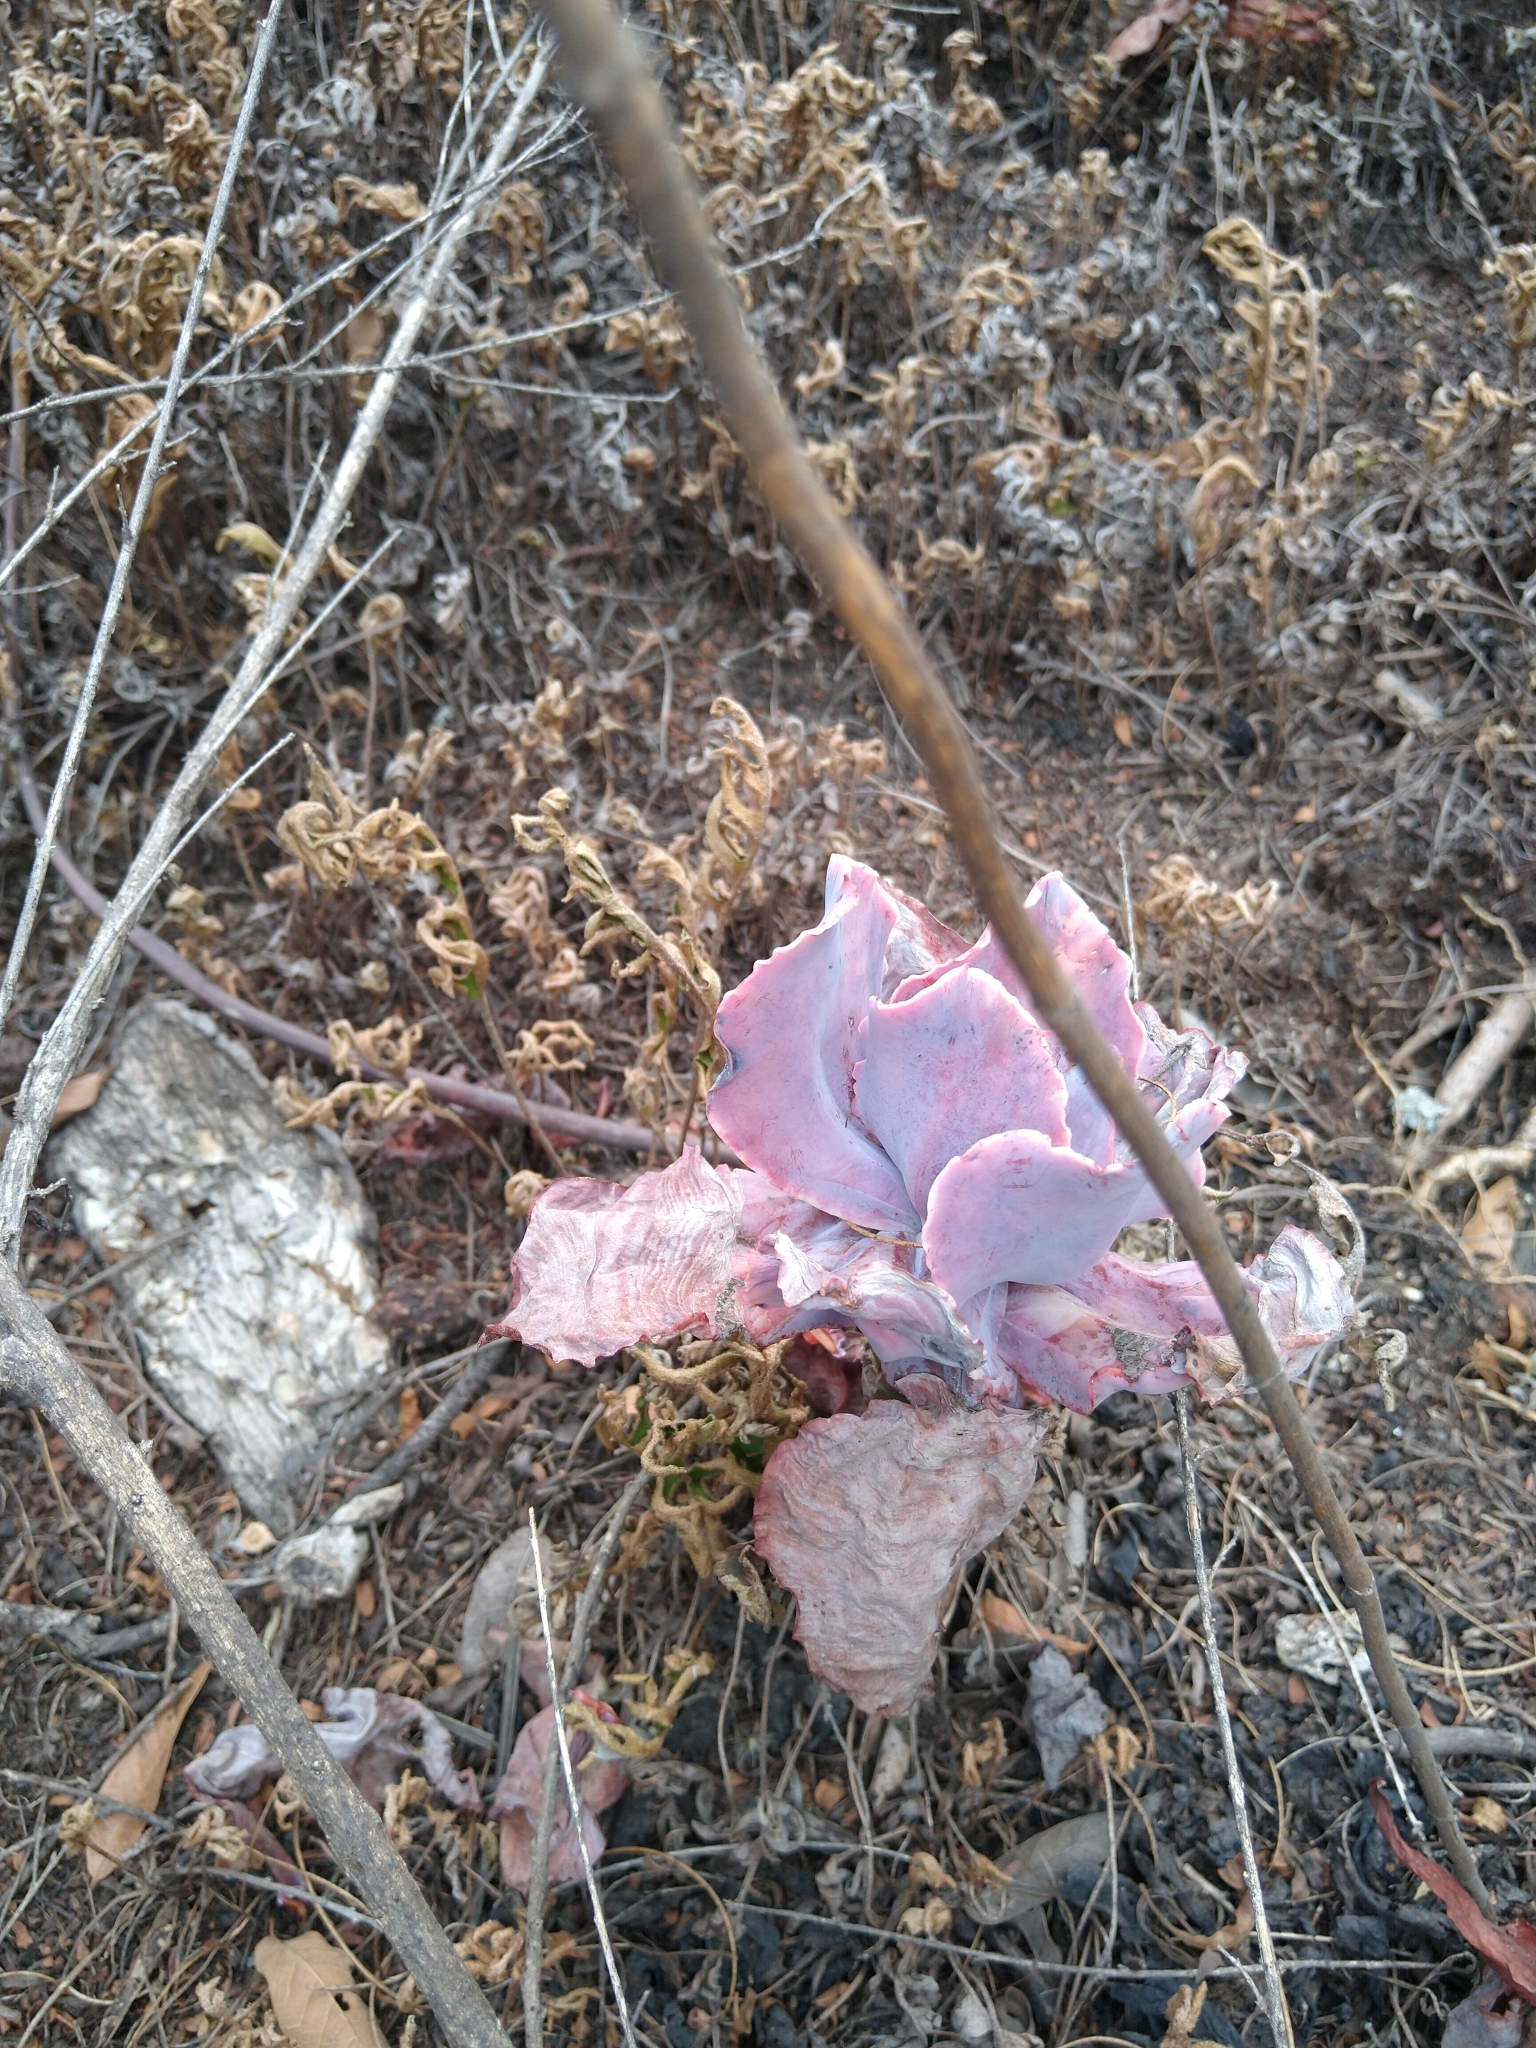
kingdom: Plantae
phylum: Tracheophyta
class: Magnoliopsida
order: Saxifragales
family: Crassulaceae
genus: Echeveria
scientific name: Echeveria gibbiflora
